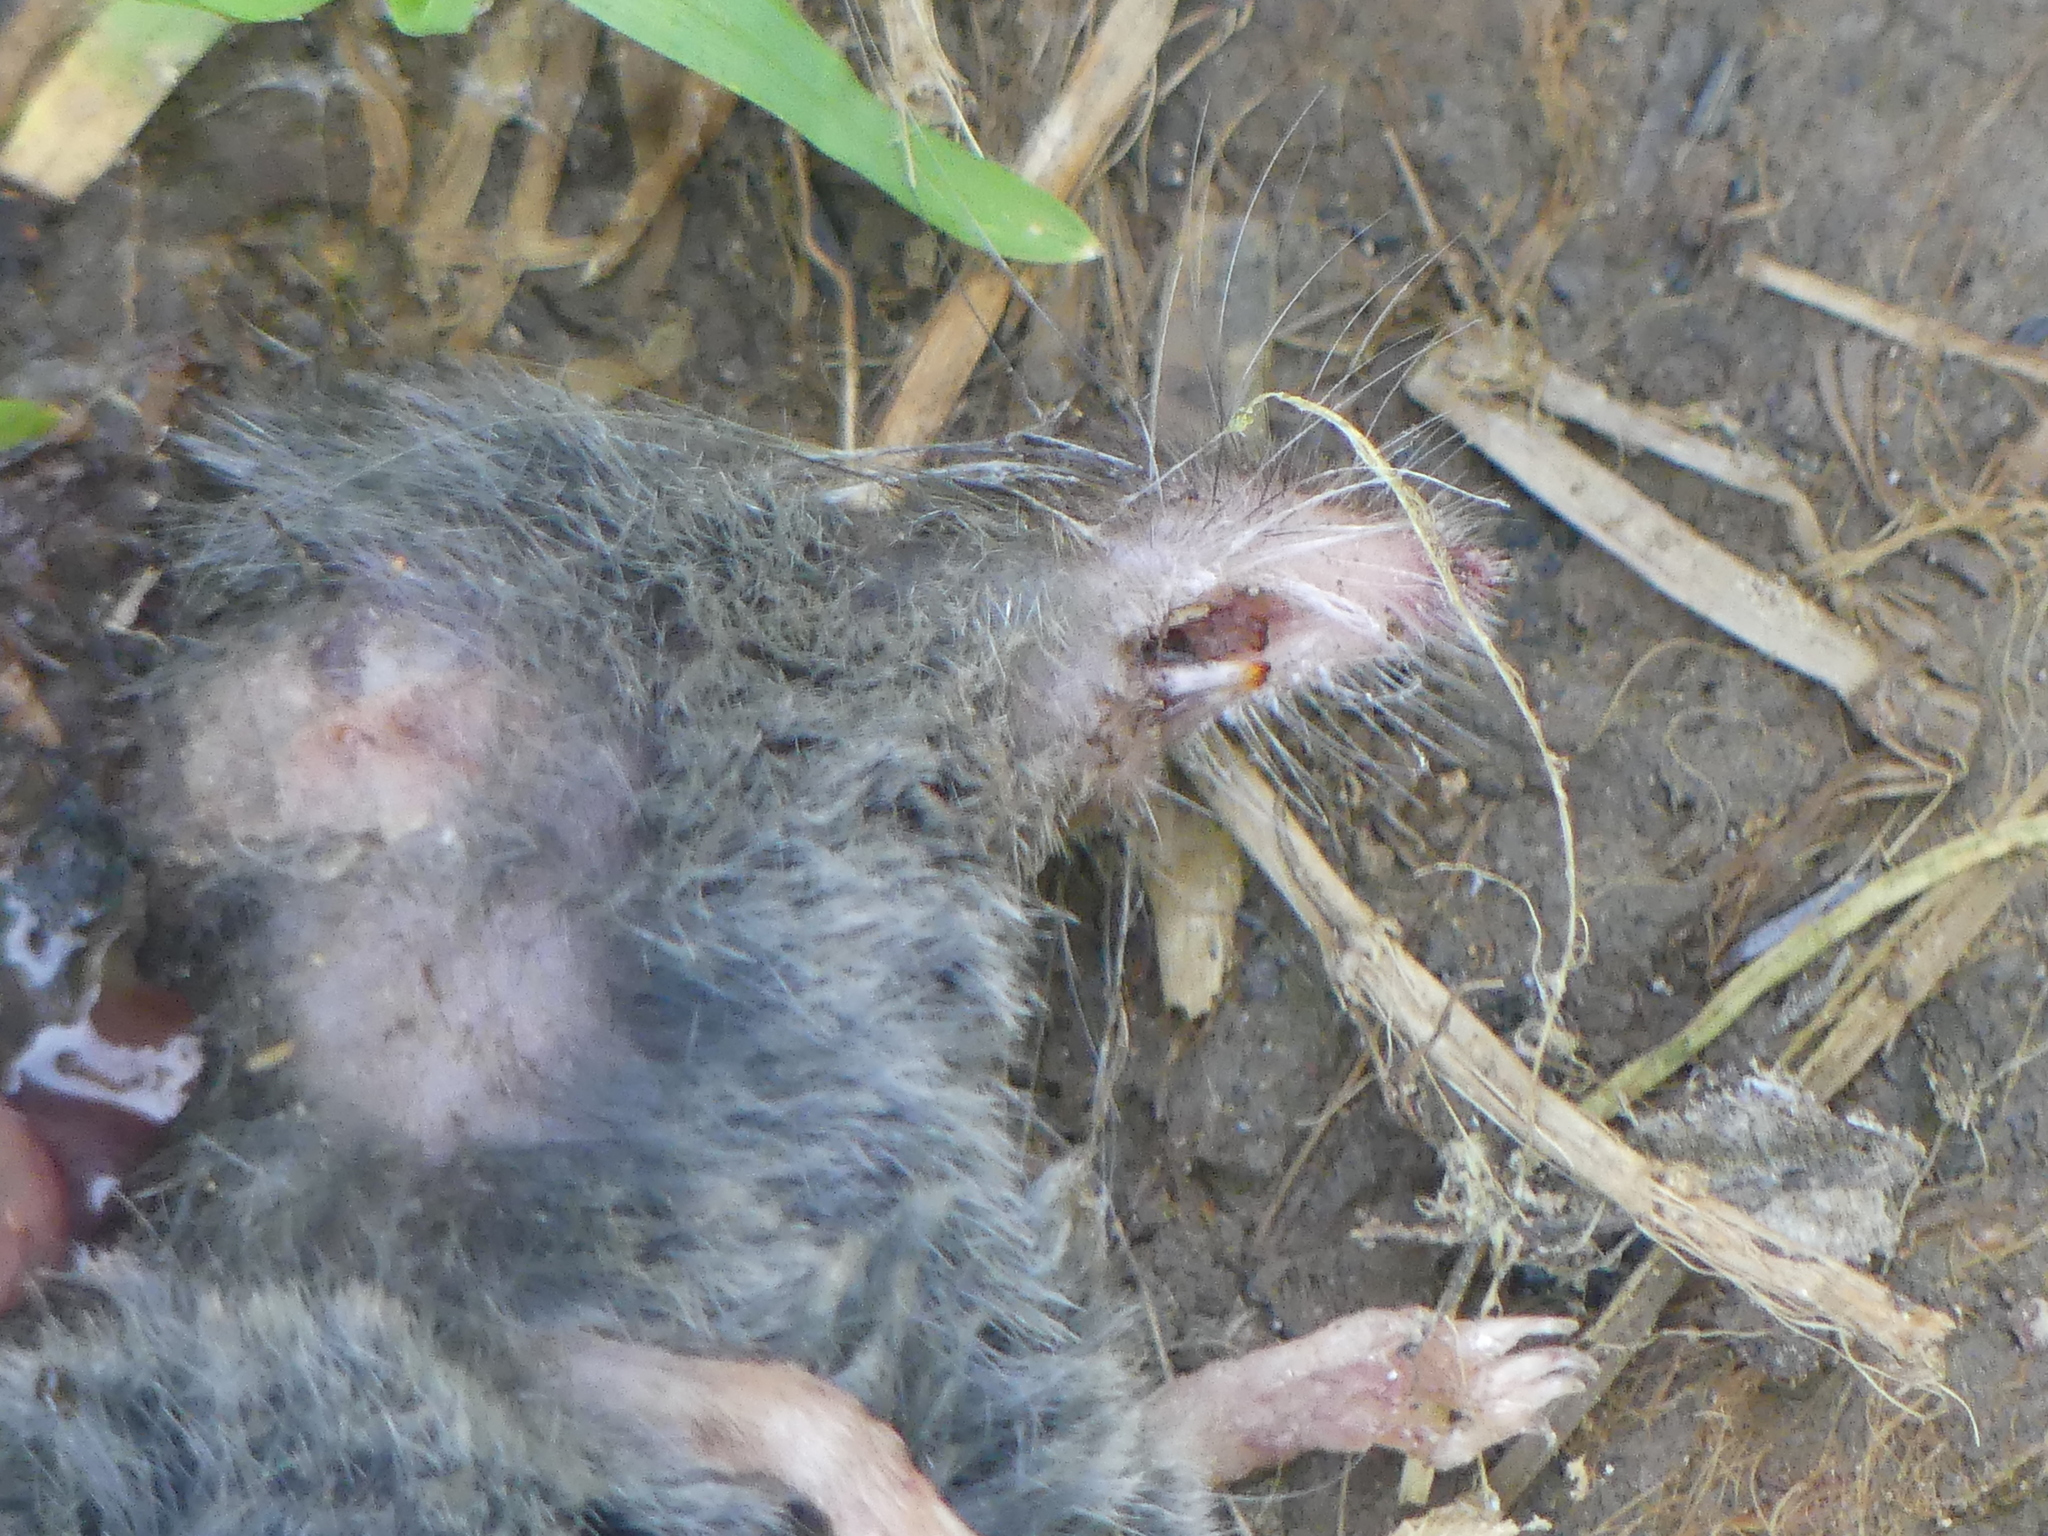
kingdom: Animalia
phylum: Chordata
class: Mammalia
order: Soricomorpha
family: Soricidae
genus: Sorex
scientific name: Sorex alpinus
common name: Alpine shrew
